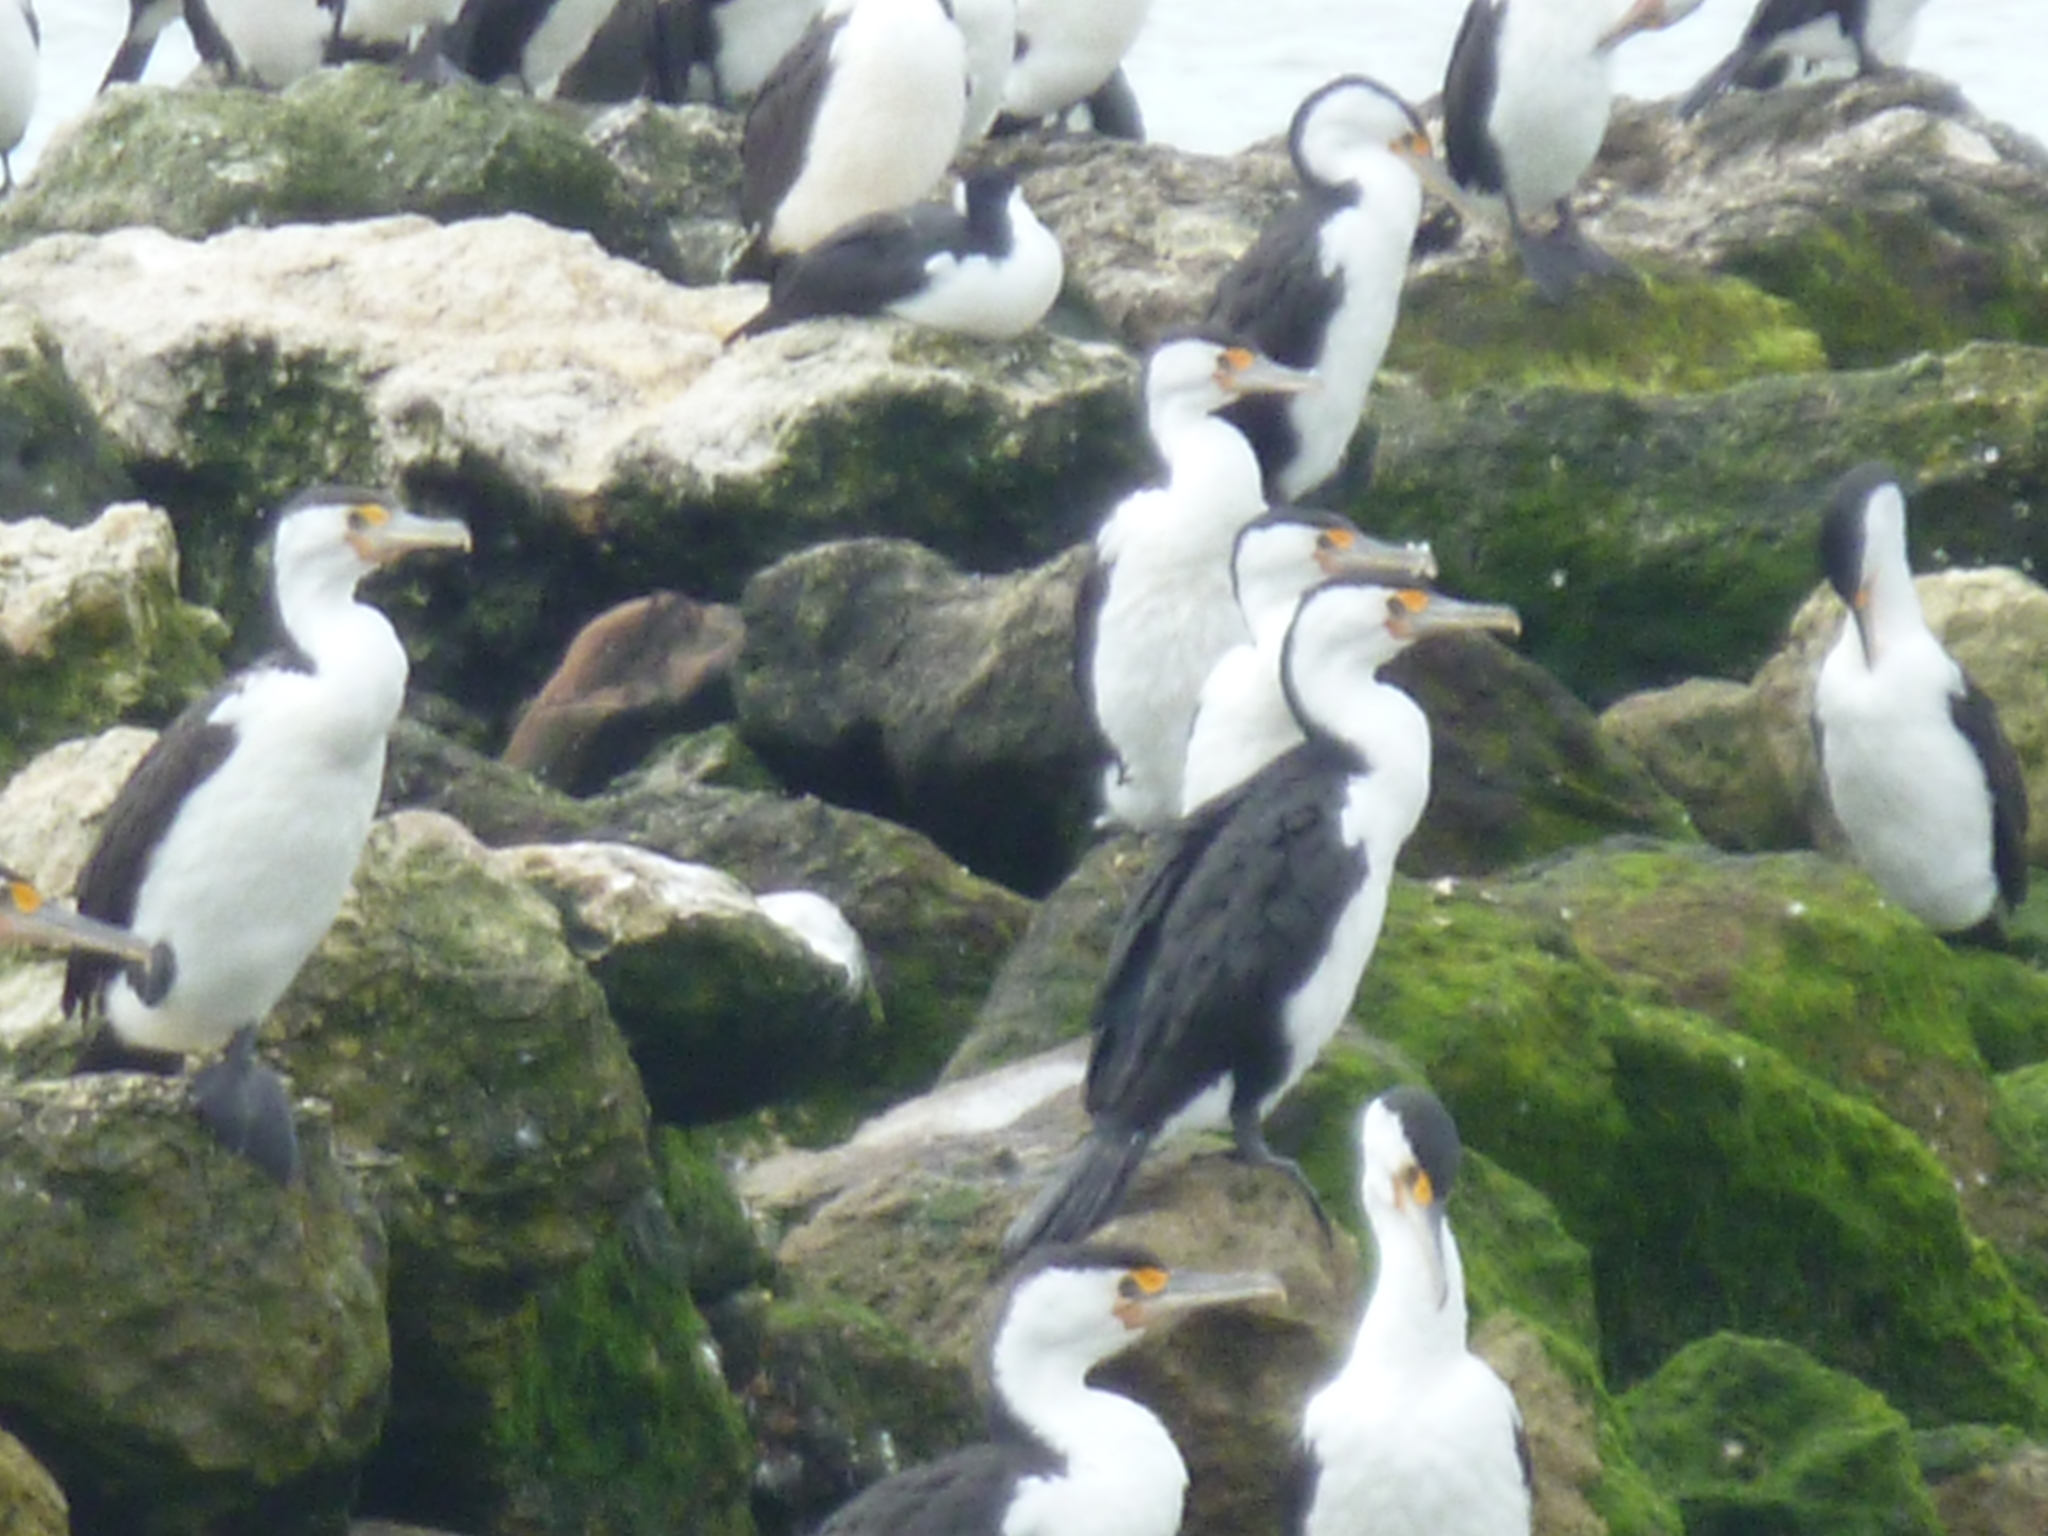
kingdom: Animalia
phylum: Chordata
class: Aves
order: Suliformes
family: Phalacrocoracidae
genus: Phalacrocorax
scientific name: Phalacrocorax varius
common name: Pied cormorant
